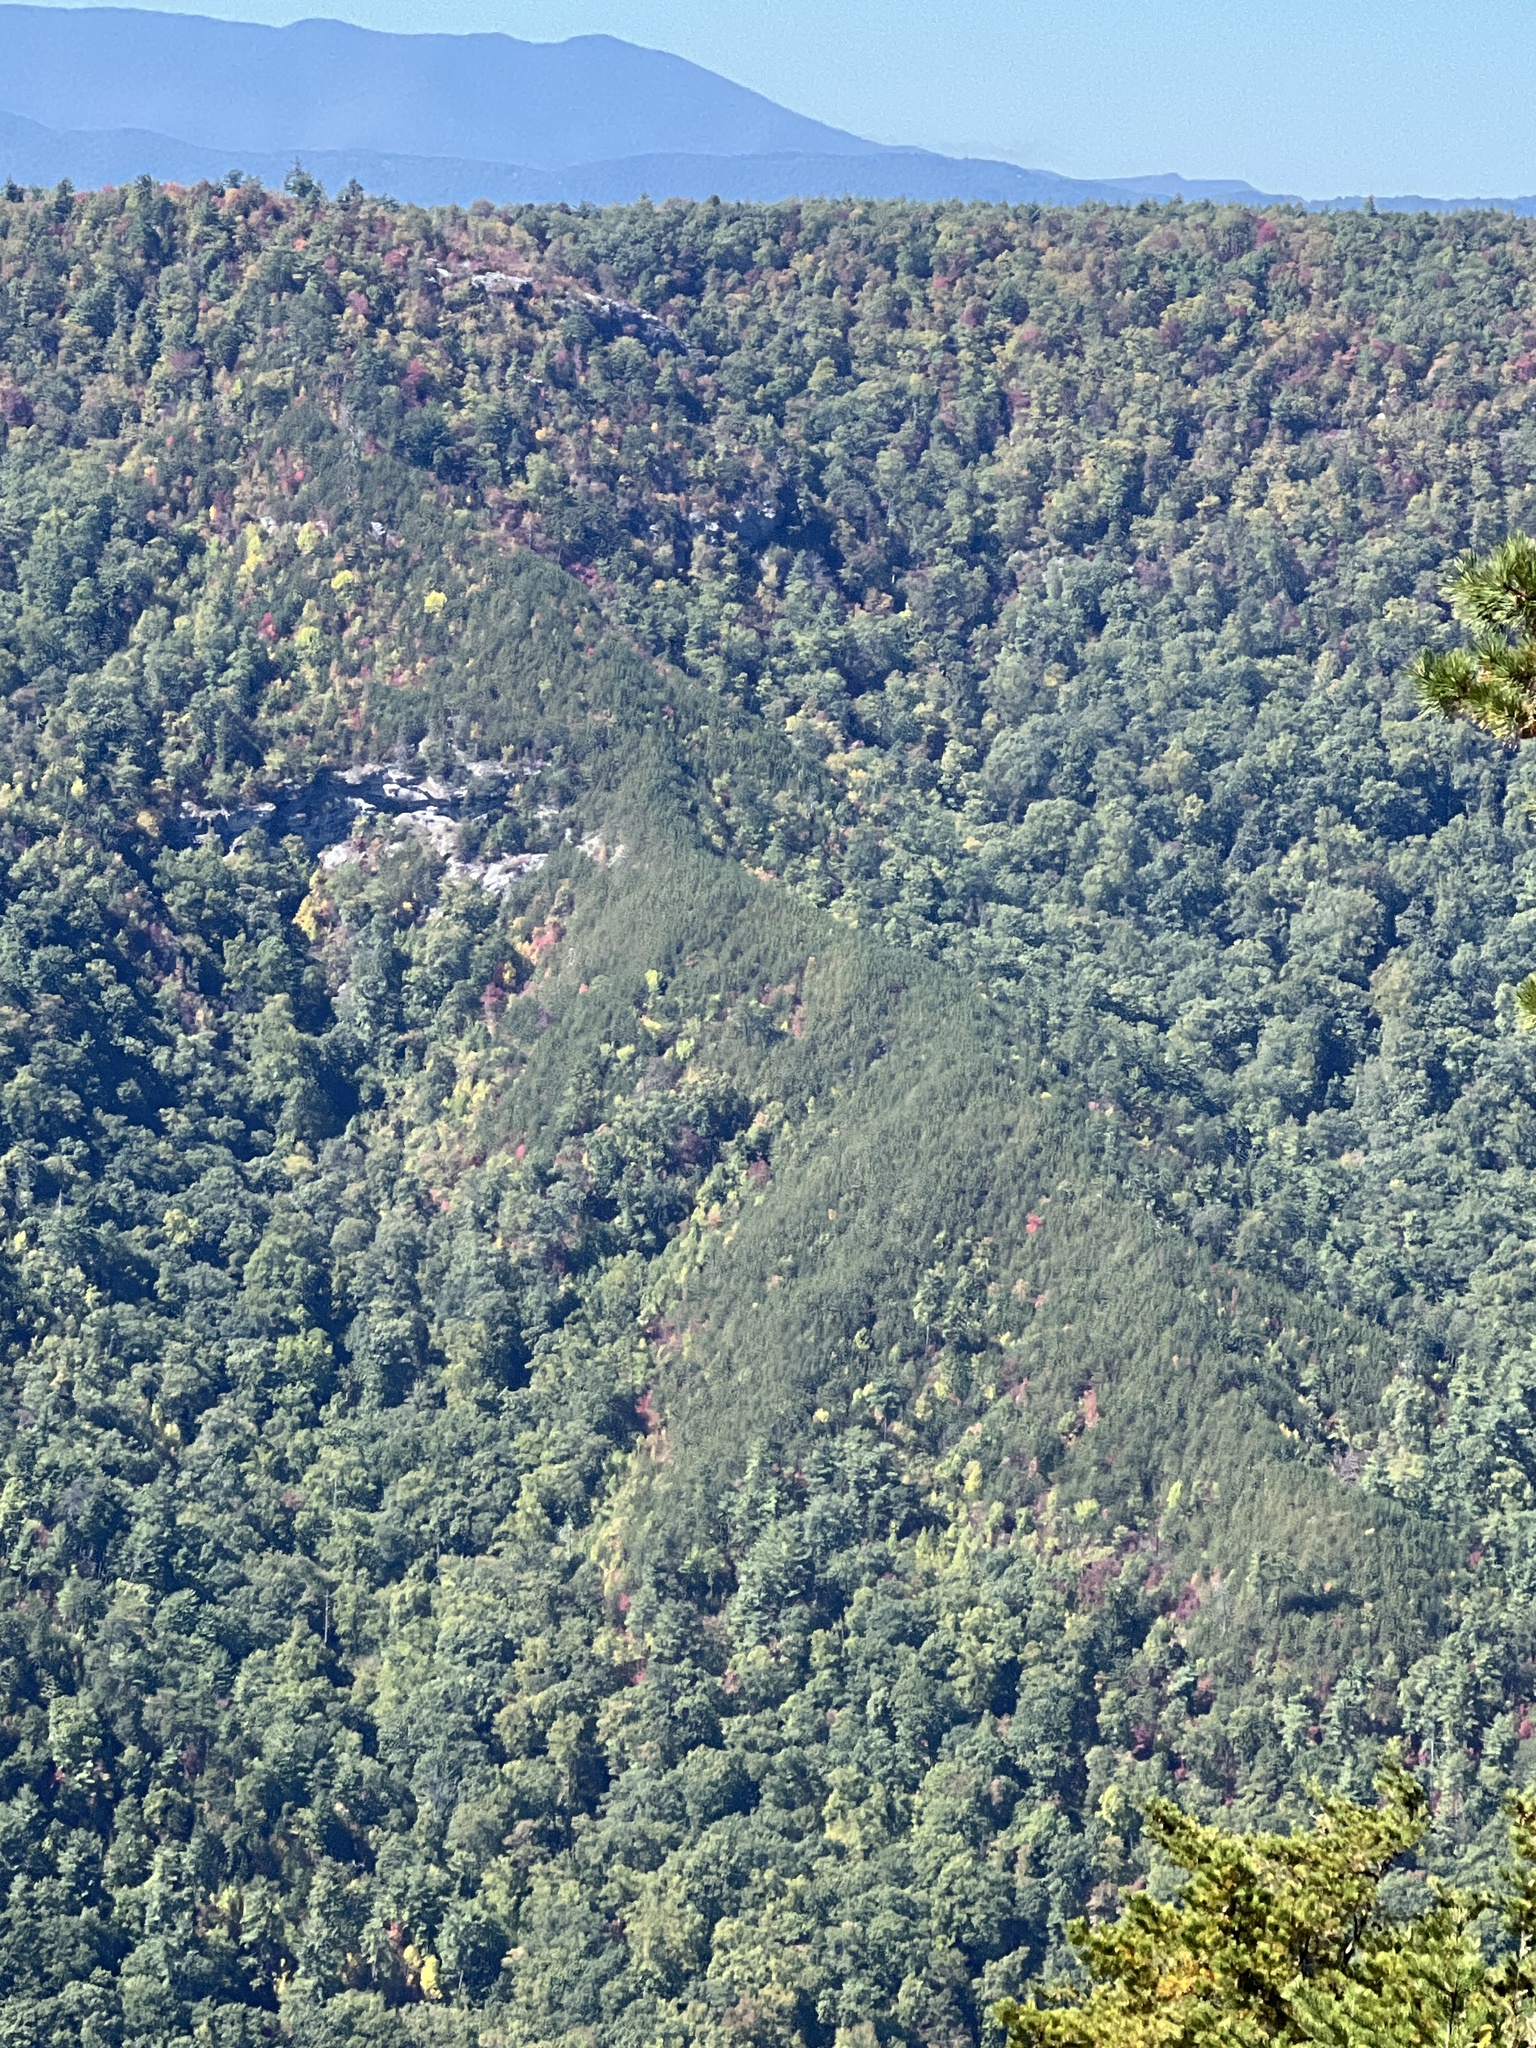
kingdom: Plantae
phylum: Tracheophyta
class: Pinopsida
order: Pinales
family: Pinaceae
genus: Pinus
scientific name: Pinus pungens
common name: Hickory pine
